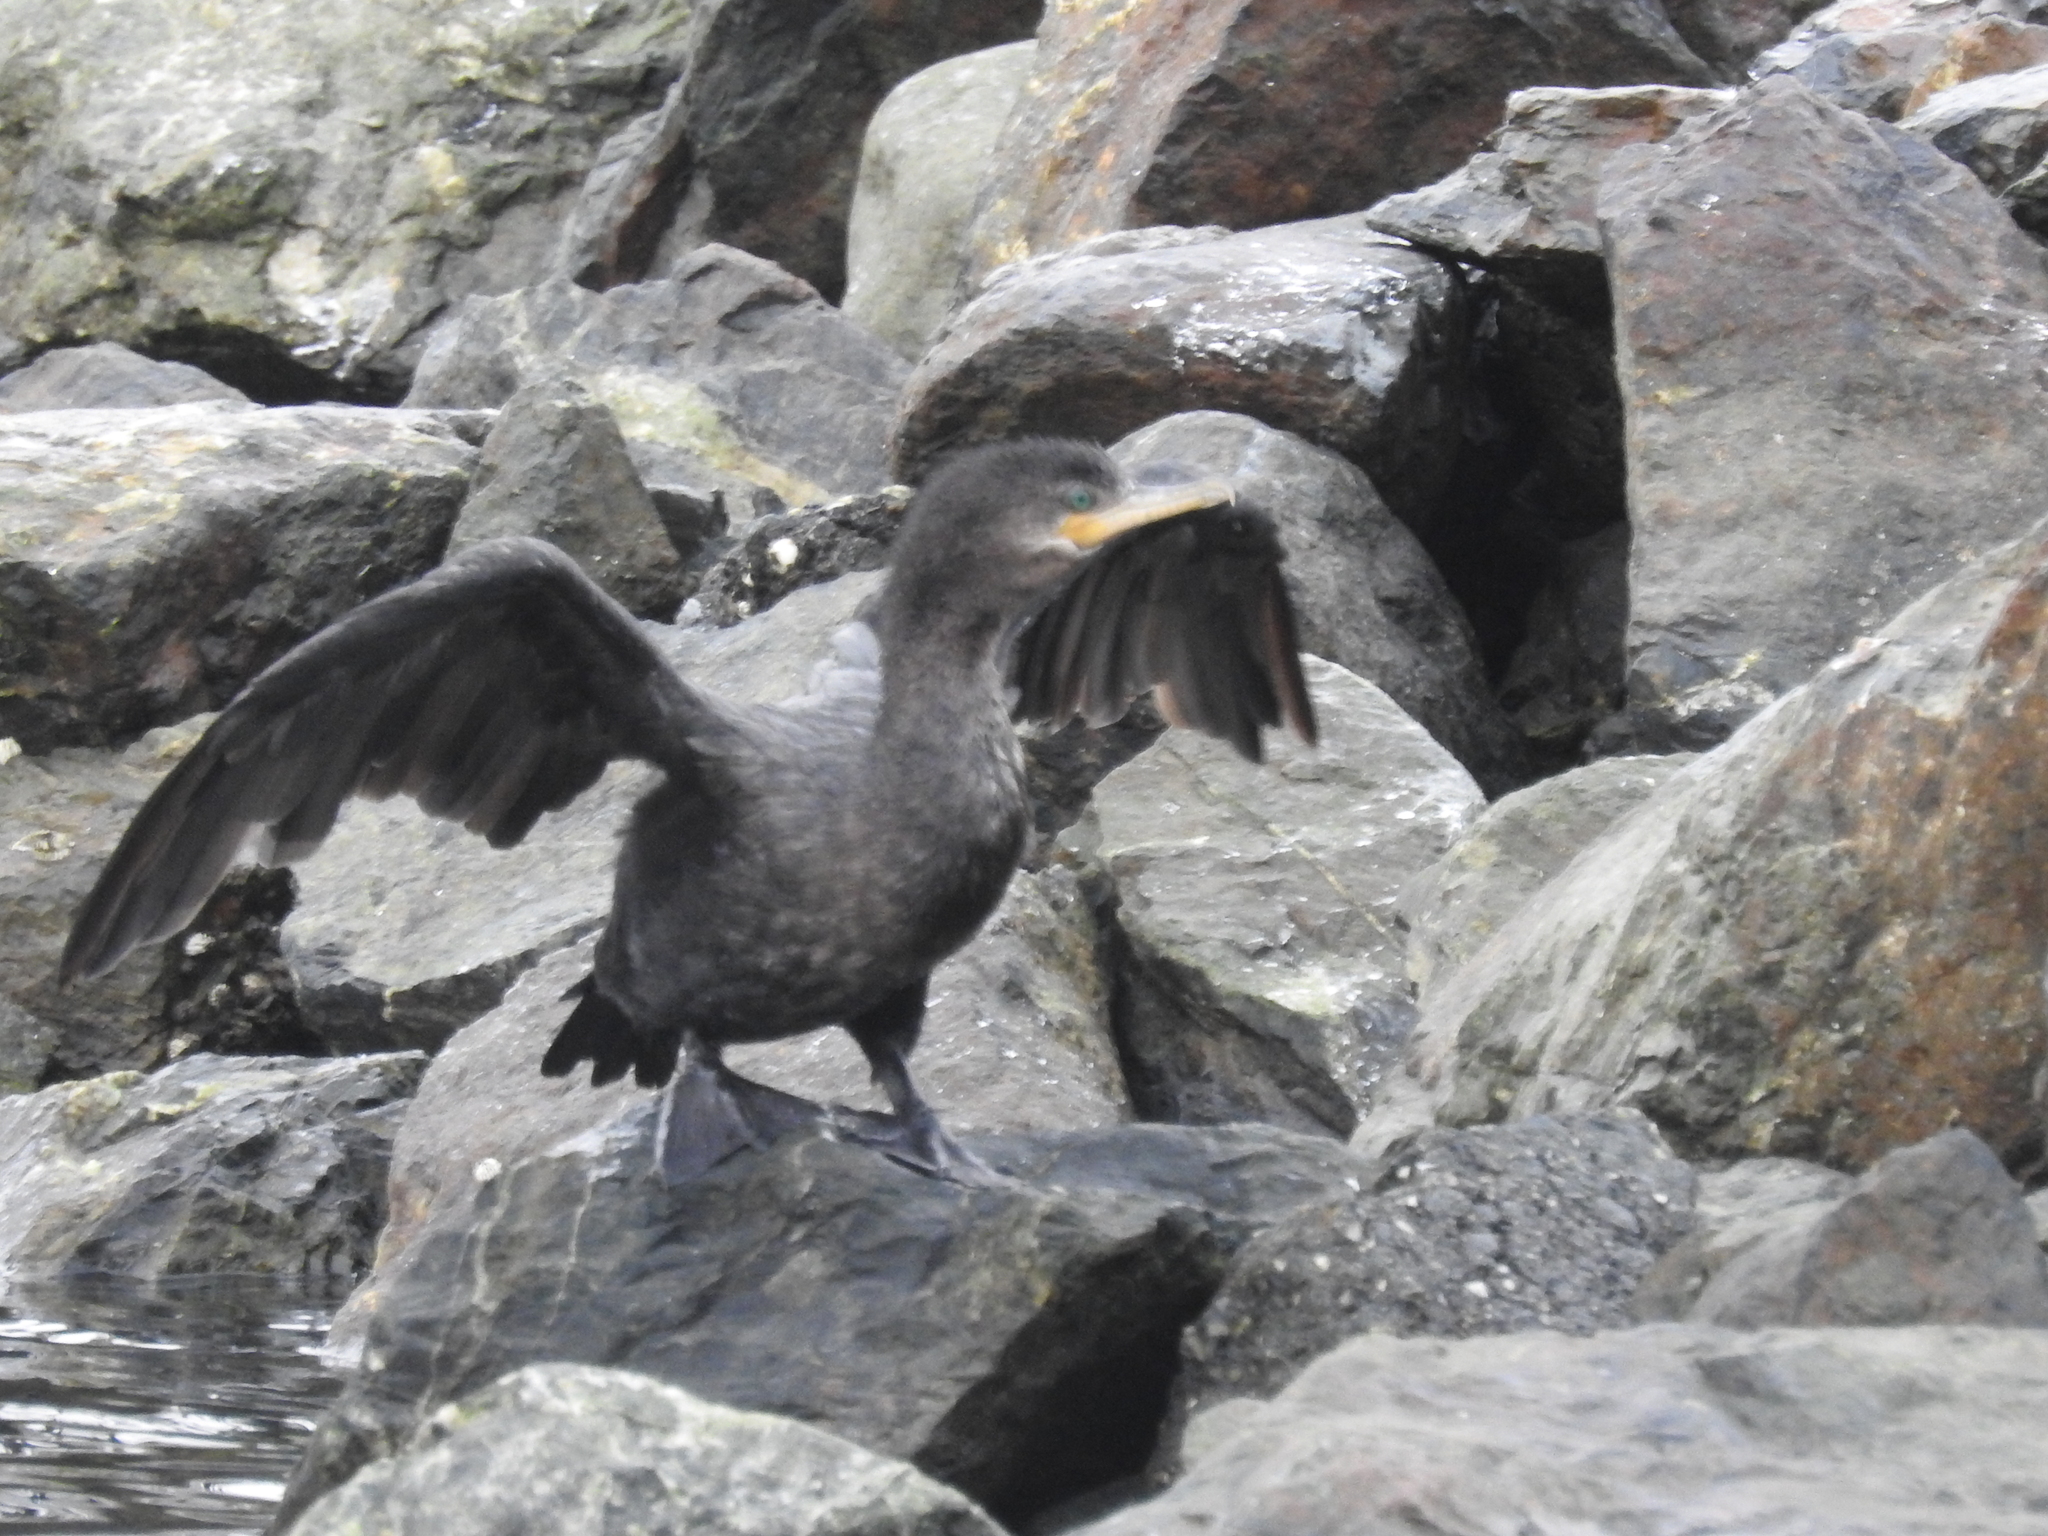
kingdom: Animalia
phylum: Chordata
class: Aves
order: Suliformes
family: Phalacrocoracidae
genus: Phalacrocorax
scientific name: Phalacrocorax brasilianus
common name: Neotropic cormorant
